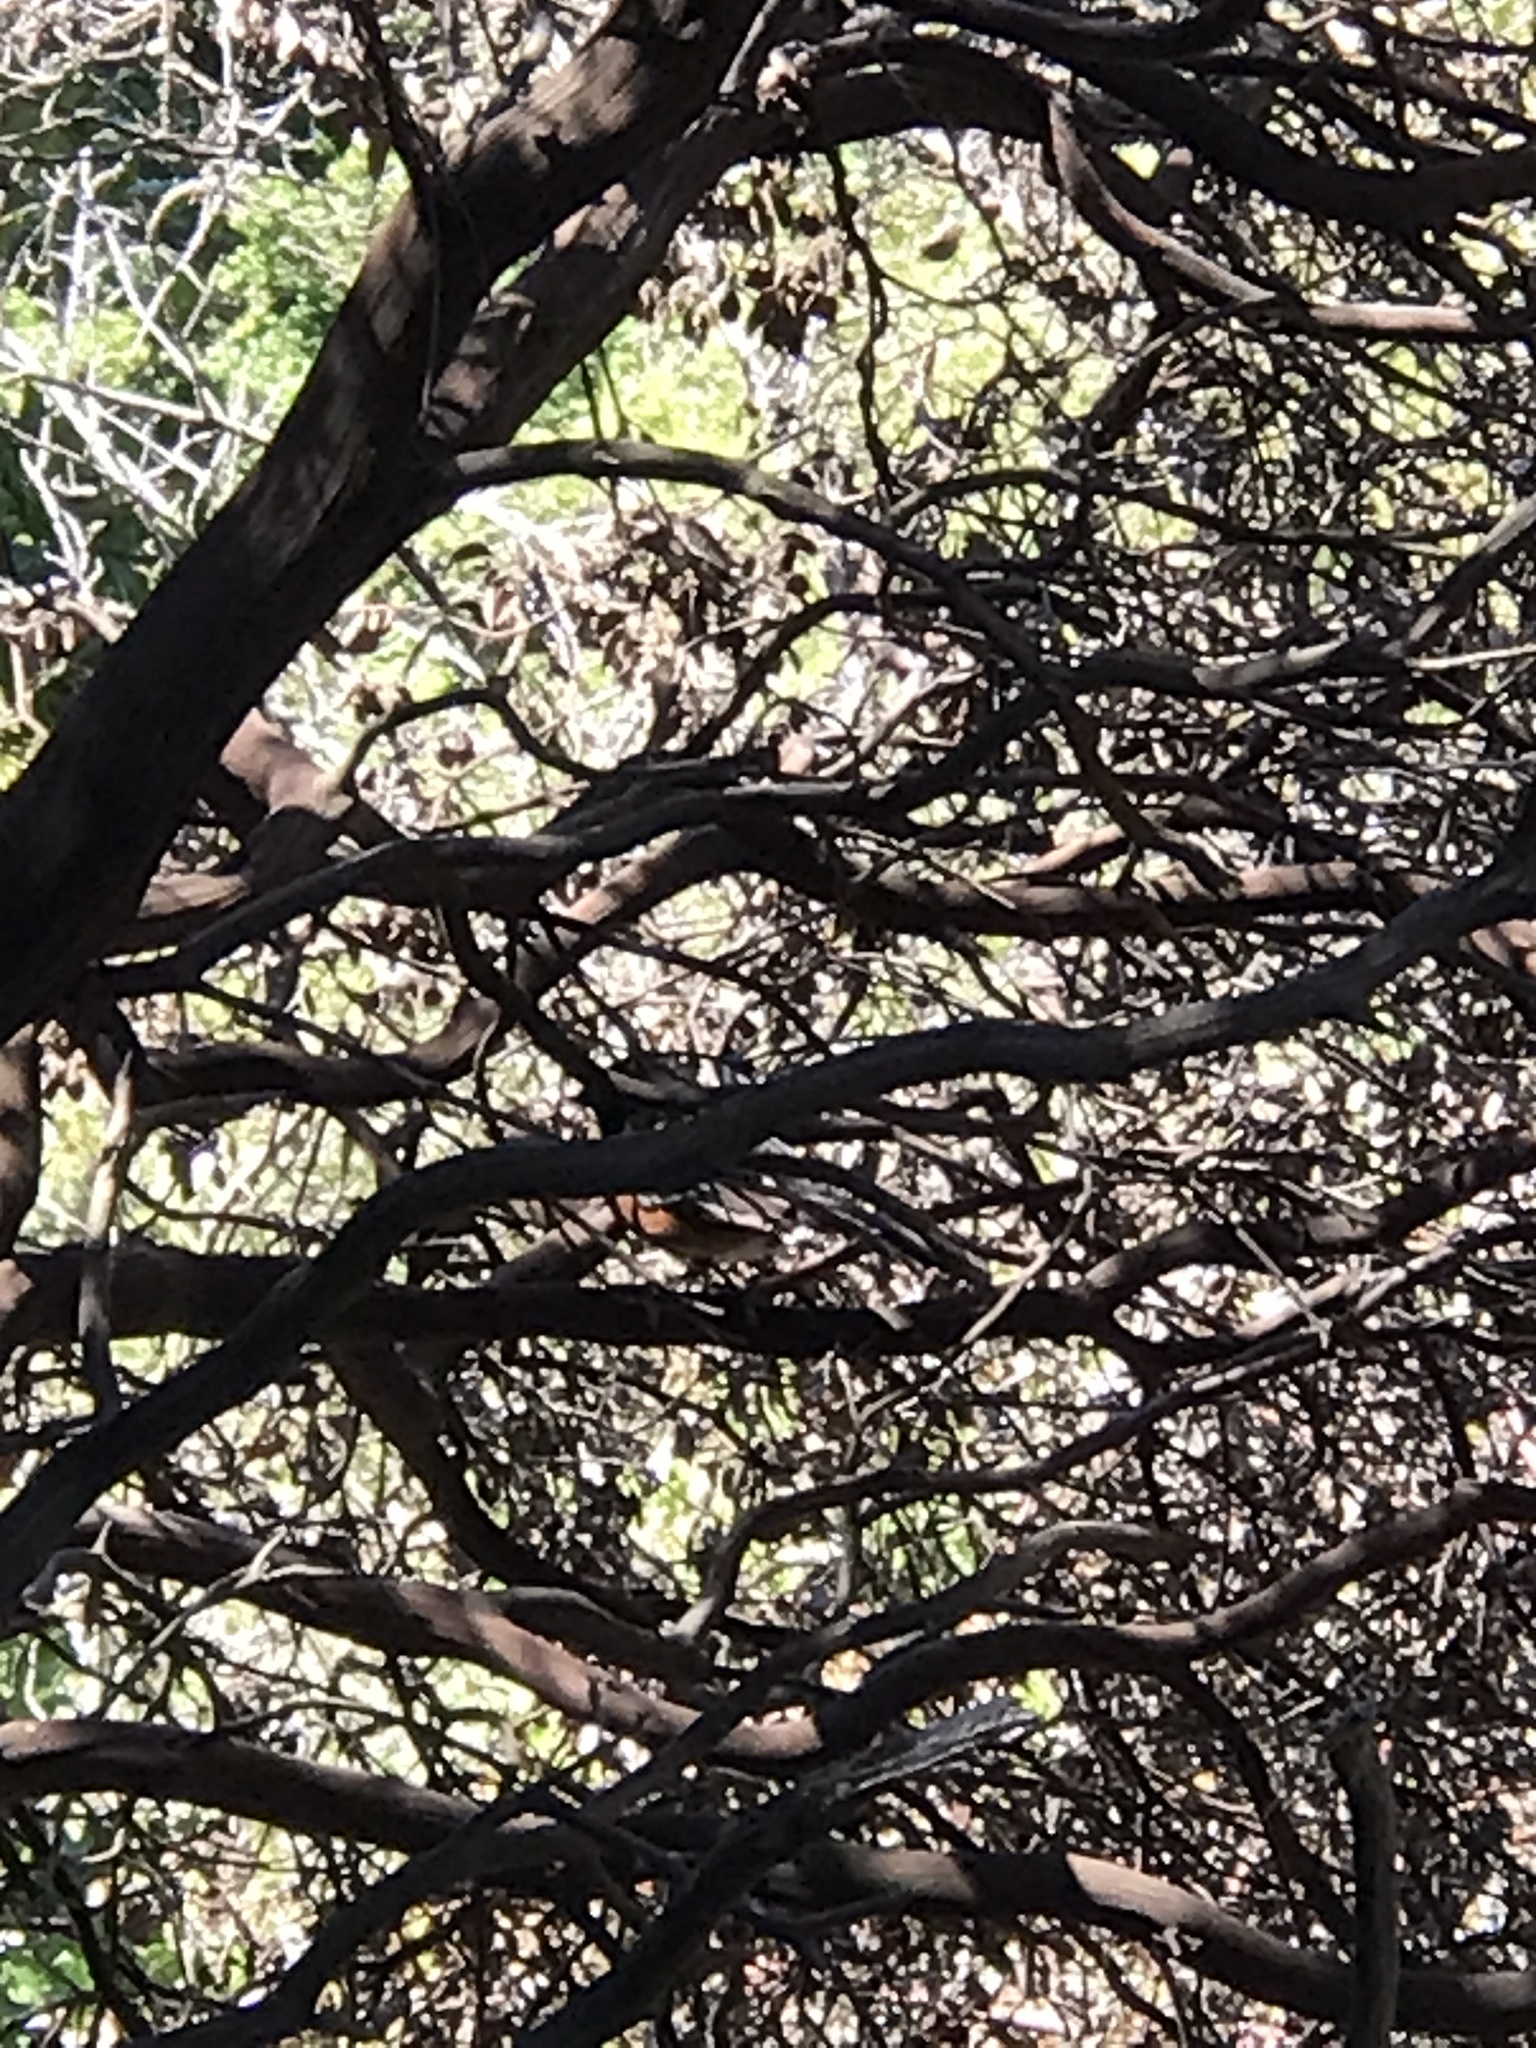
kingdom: Animalia
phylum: Chordata
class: Aves
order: Passeriformes
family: Passerellidae
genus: Pipilo
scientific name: Pipilo maculatus
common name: Spotted towhee
